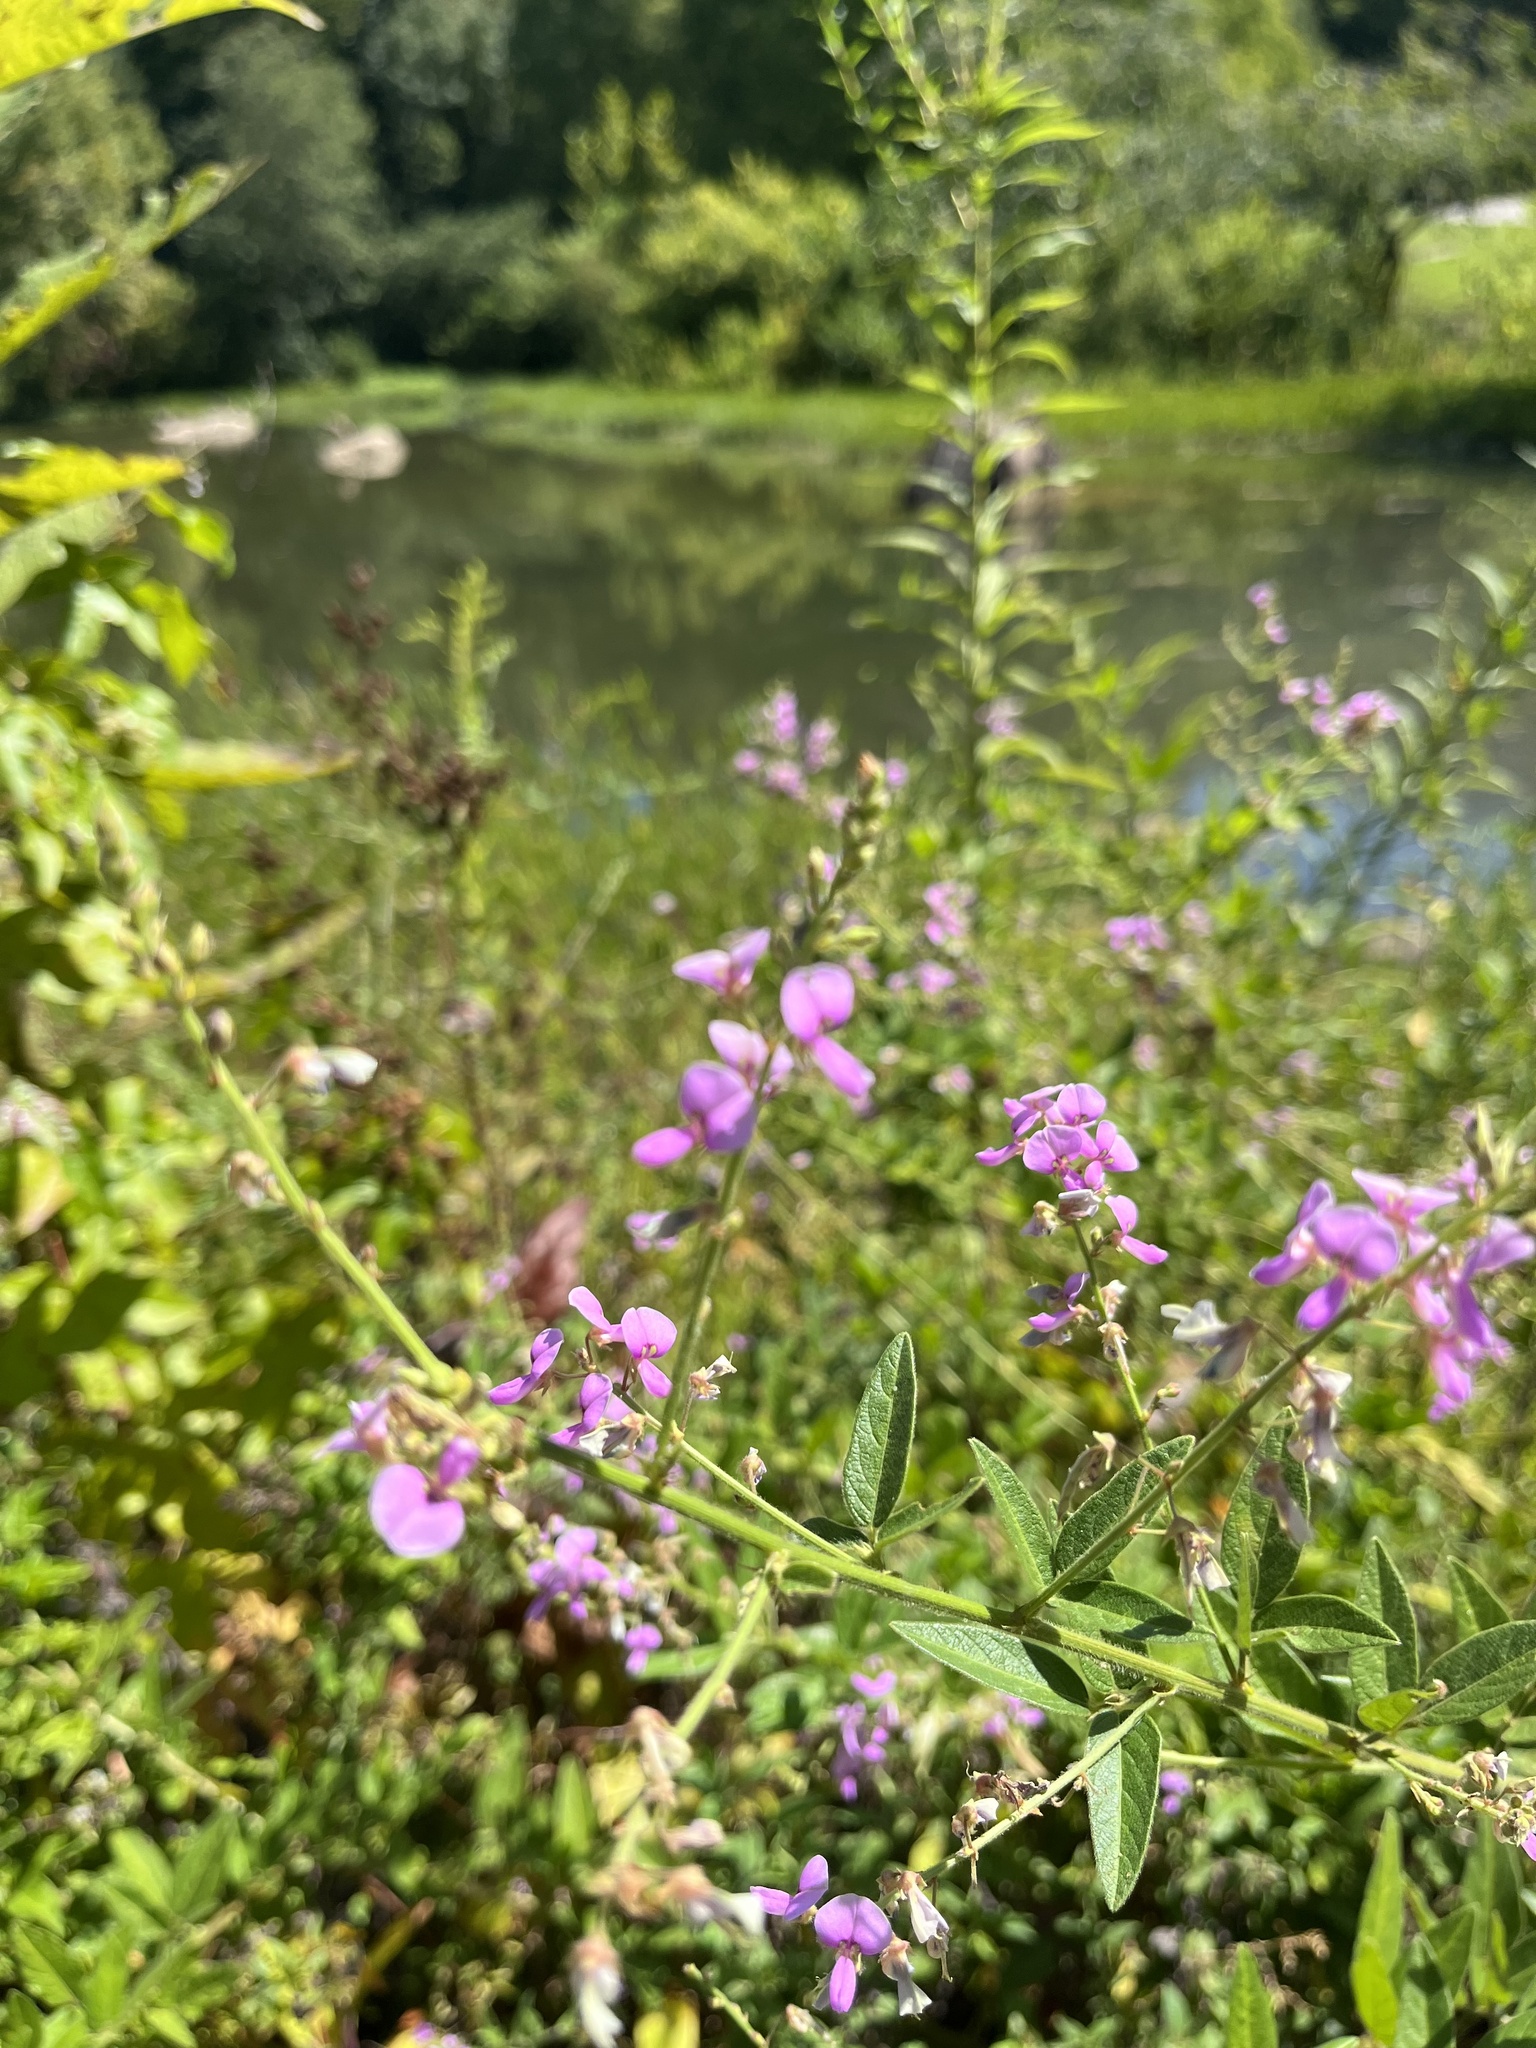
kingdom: Plantae
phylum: Tracheophyta
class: Magnoliopsida
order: Fabales
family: Fabaceae
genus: Desmodium
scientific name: Desmodium glabellum
